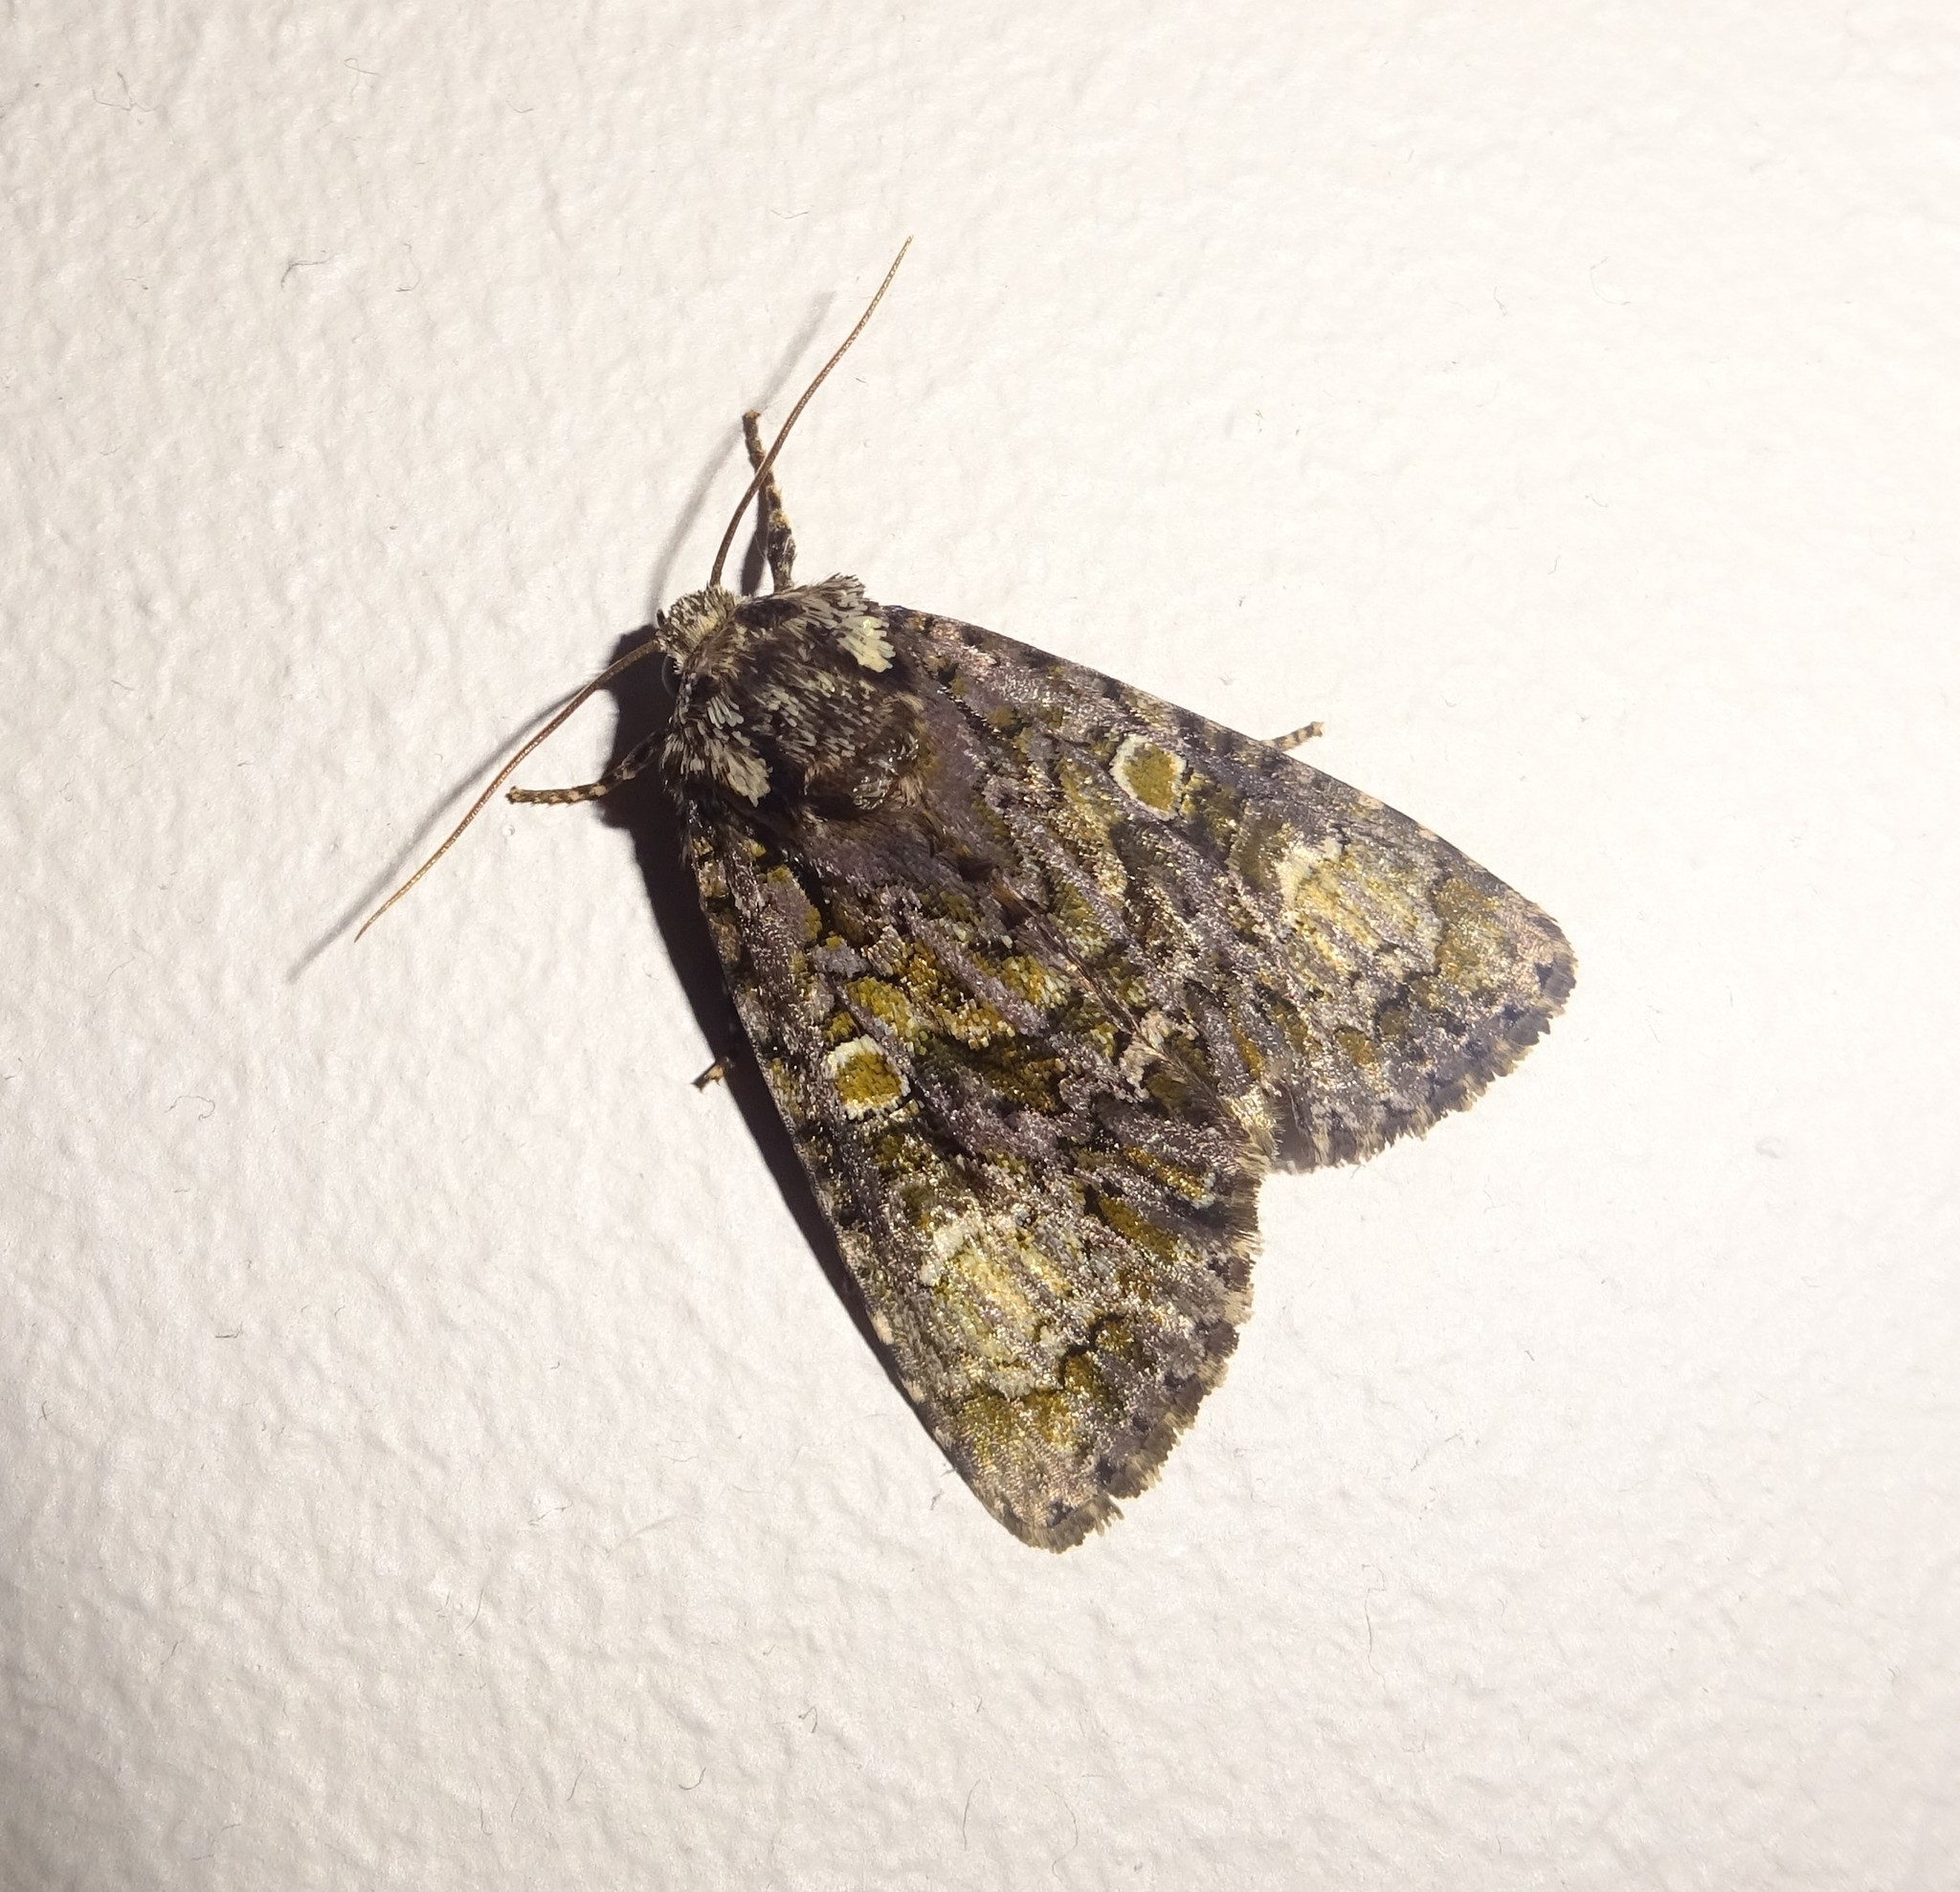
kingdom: Animalia
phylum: Arthropoda
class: Insecta
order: Lepidoptera
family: Noctuidae
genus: Craniophora
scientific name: Craniophora ligustri
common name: Coronet
